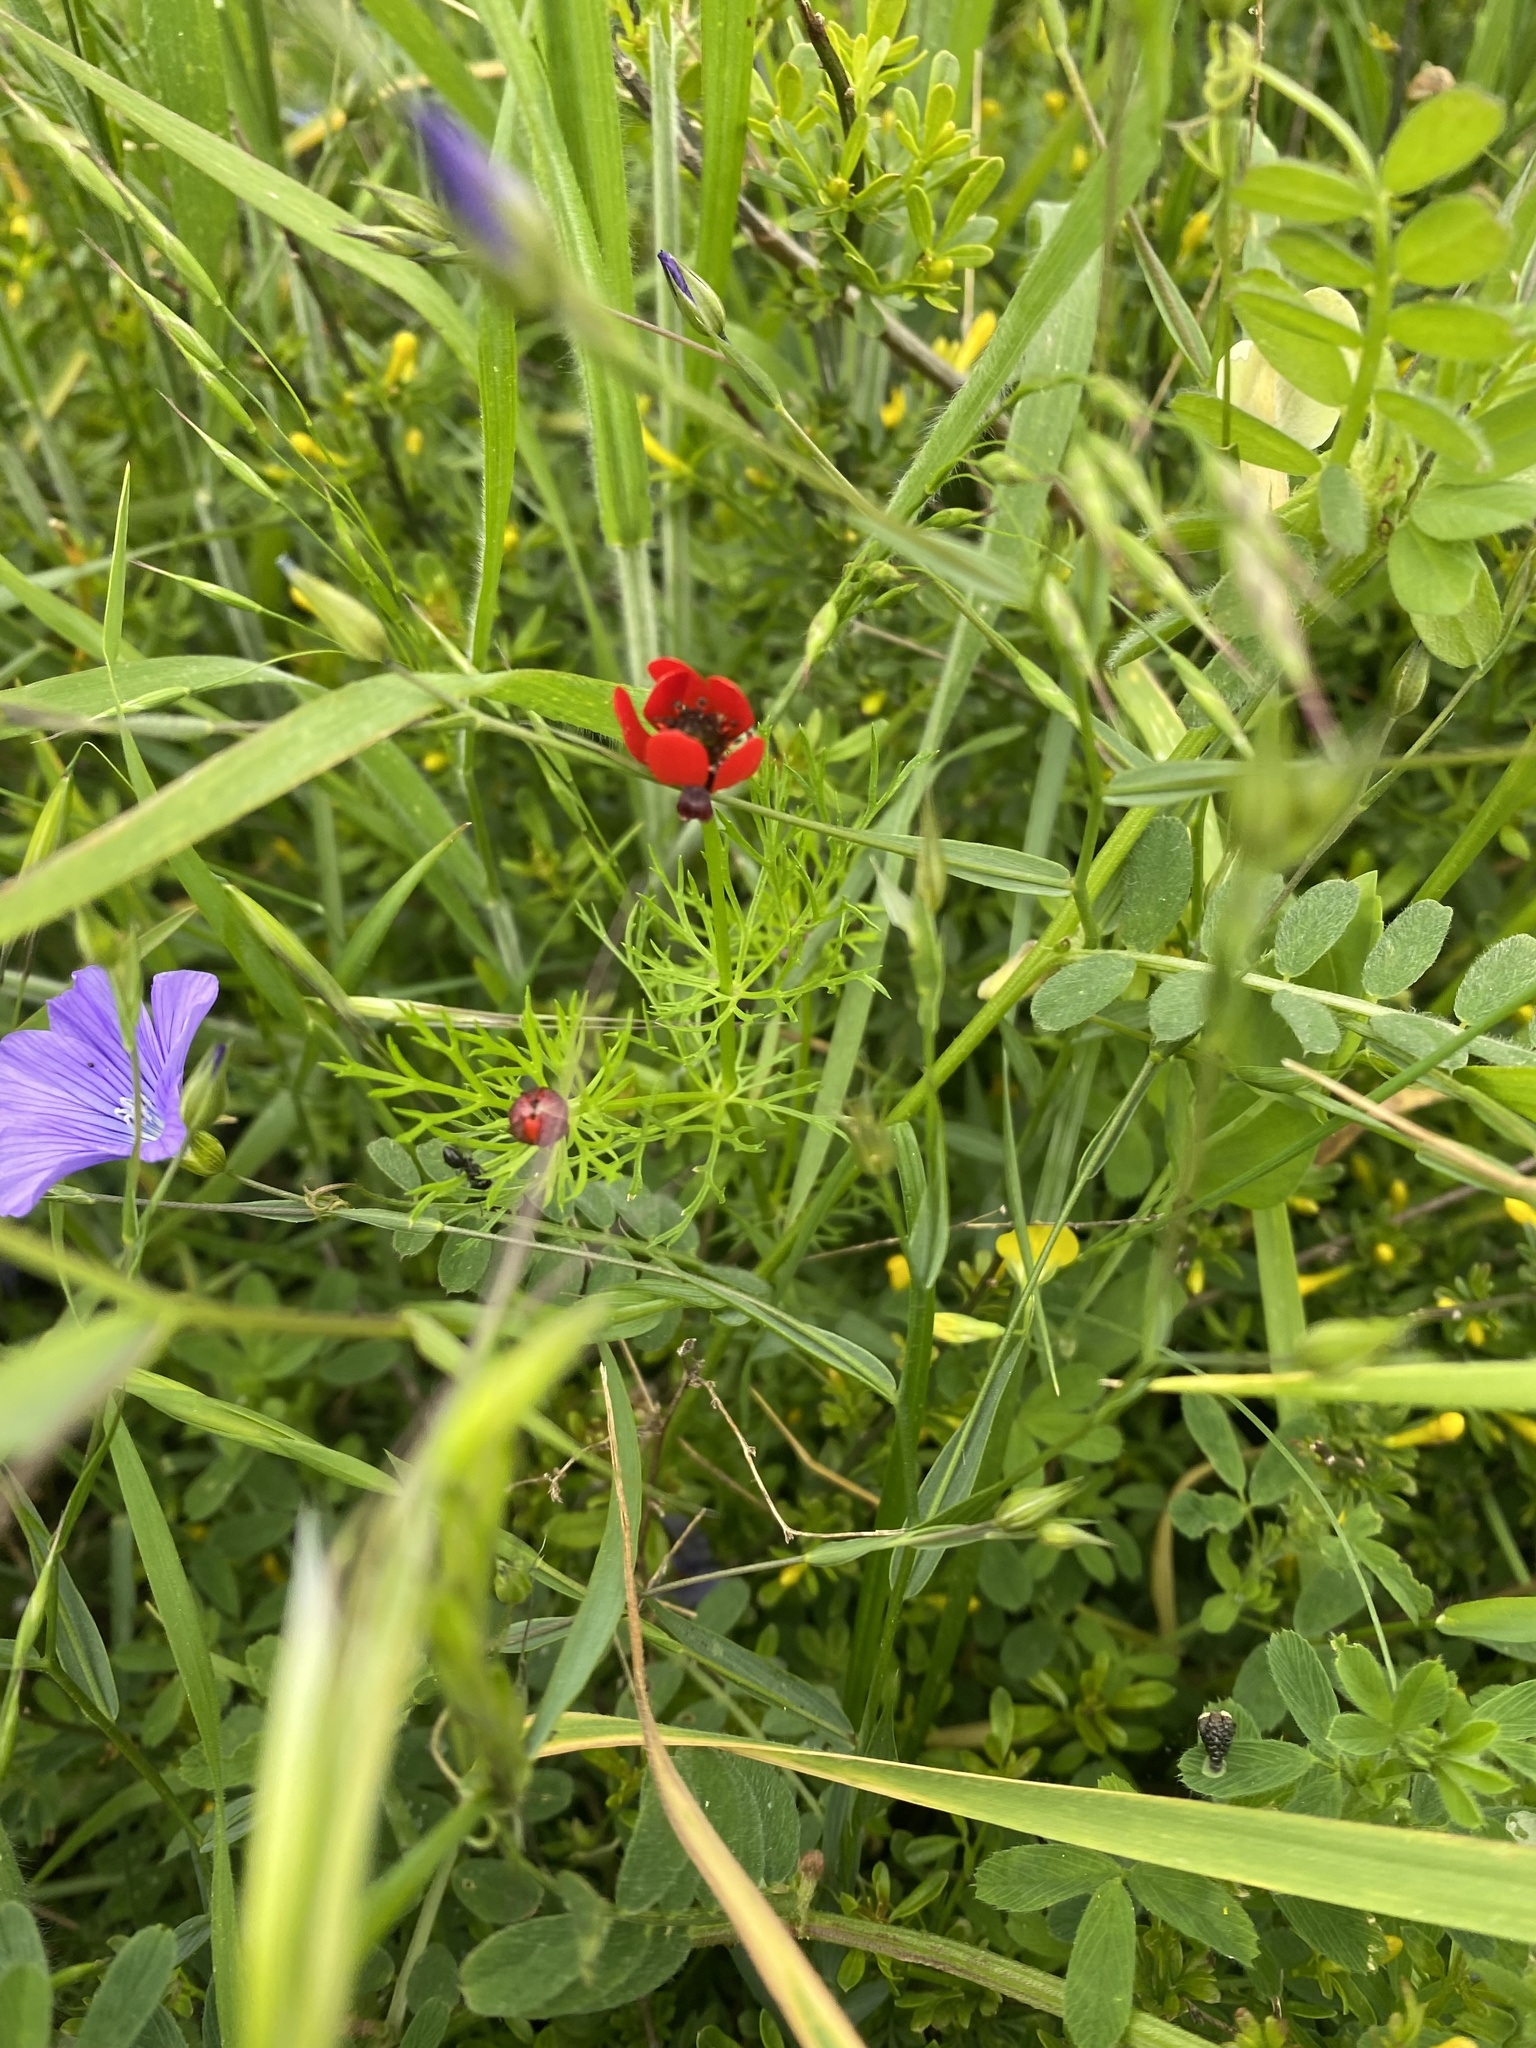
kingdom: Plantae
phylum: Tracheophyta
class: Magnoliopsida
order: Ranunculales
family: Ranunculaceae
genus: Adonis
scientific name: Adonis aestivalis
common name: Summer pheasant's-eye
